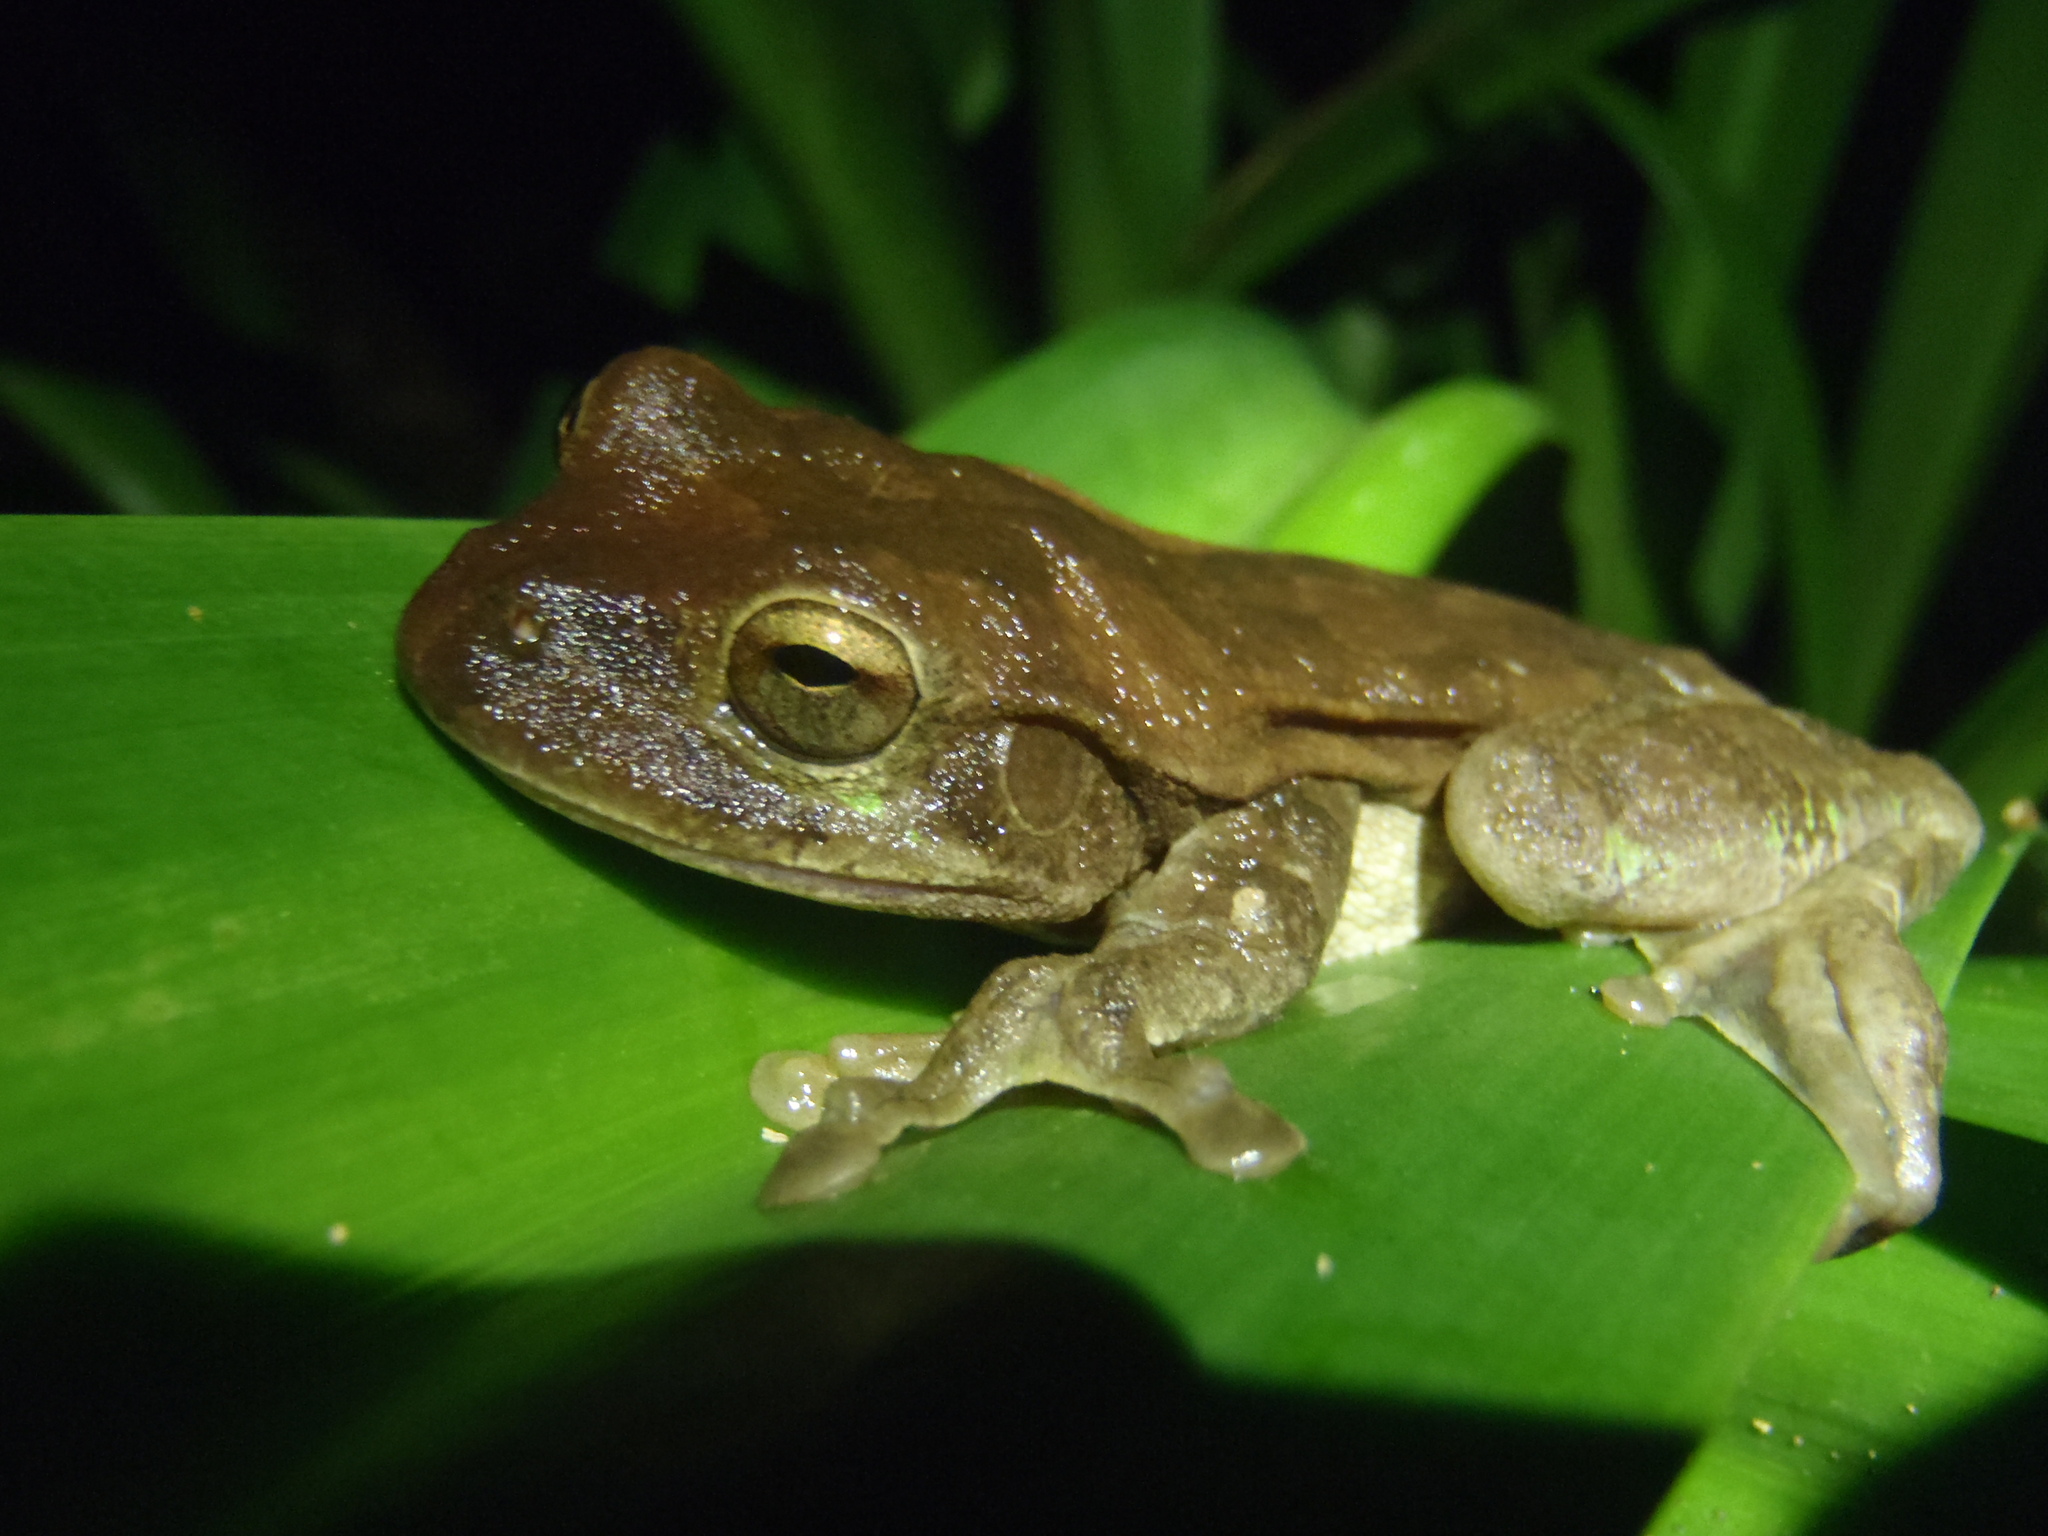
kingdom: Animalia
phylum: Chordata
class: Amphibia
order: Anura
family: Hylidae
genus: Smilisca
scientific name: Smilisca sordida
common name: Veragua cross-banded treefrog
